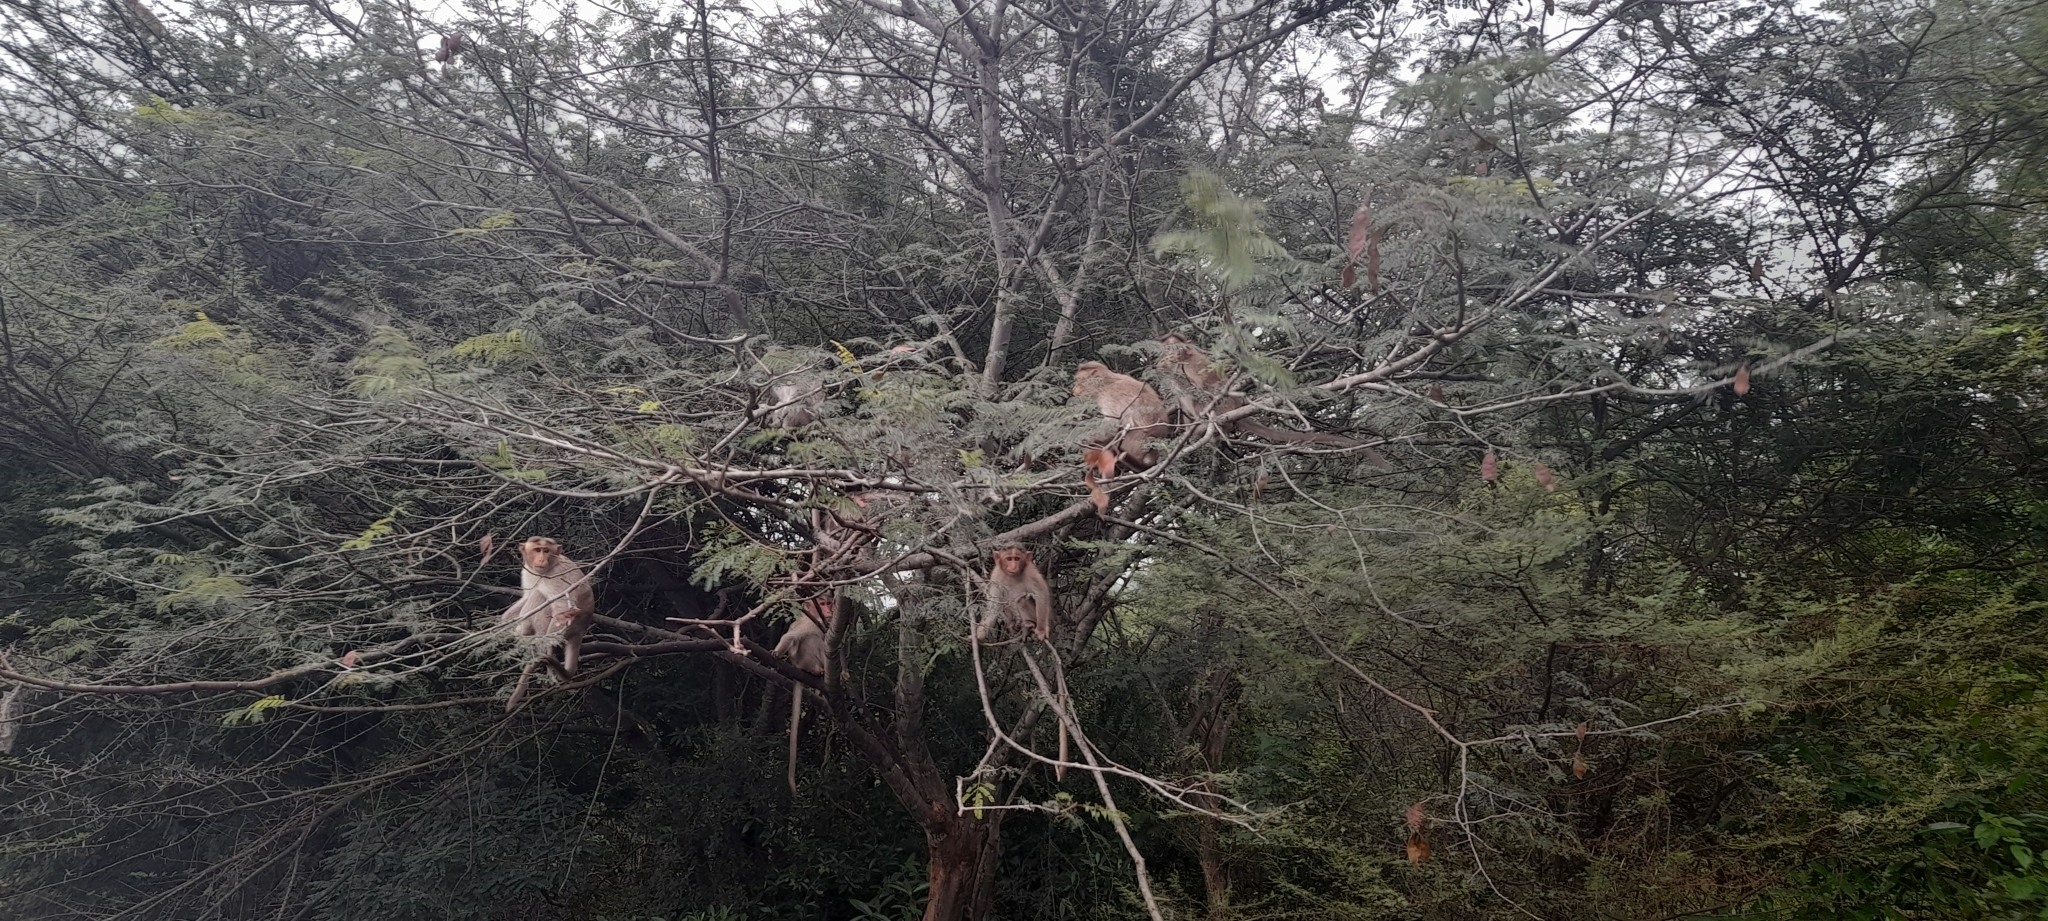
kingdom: Animalia
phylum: Chordata
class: Mammalia
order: Primates
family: Cercopithecidae
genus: Macaca
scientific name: Macaca radiata
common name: Bonnet macaque
